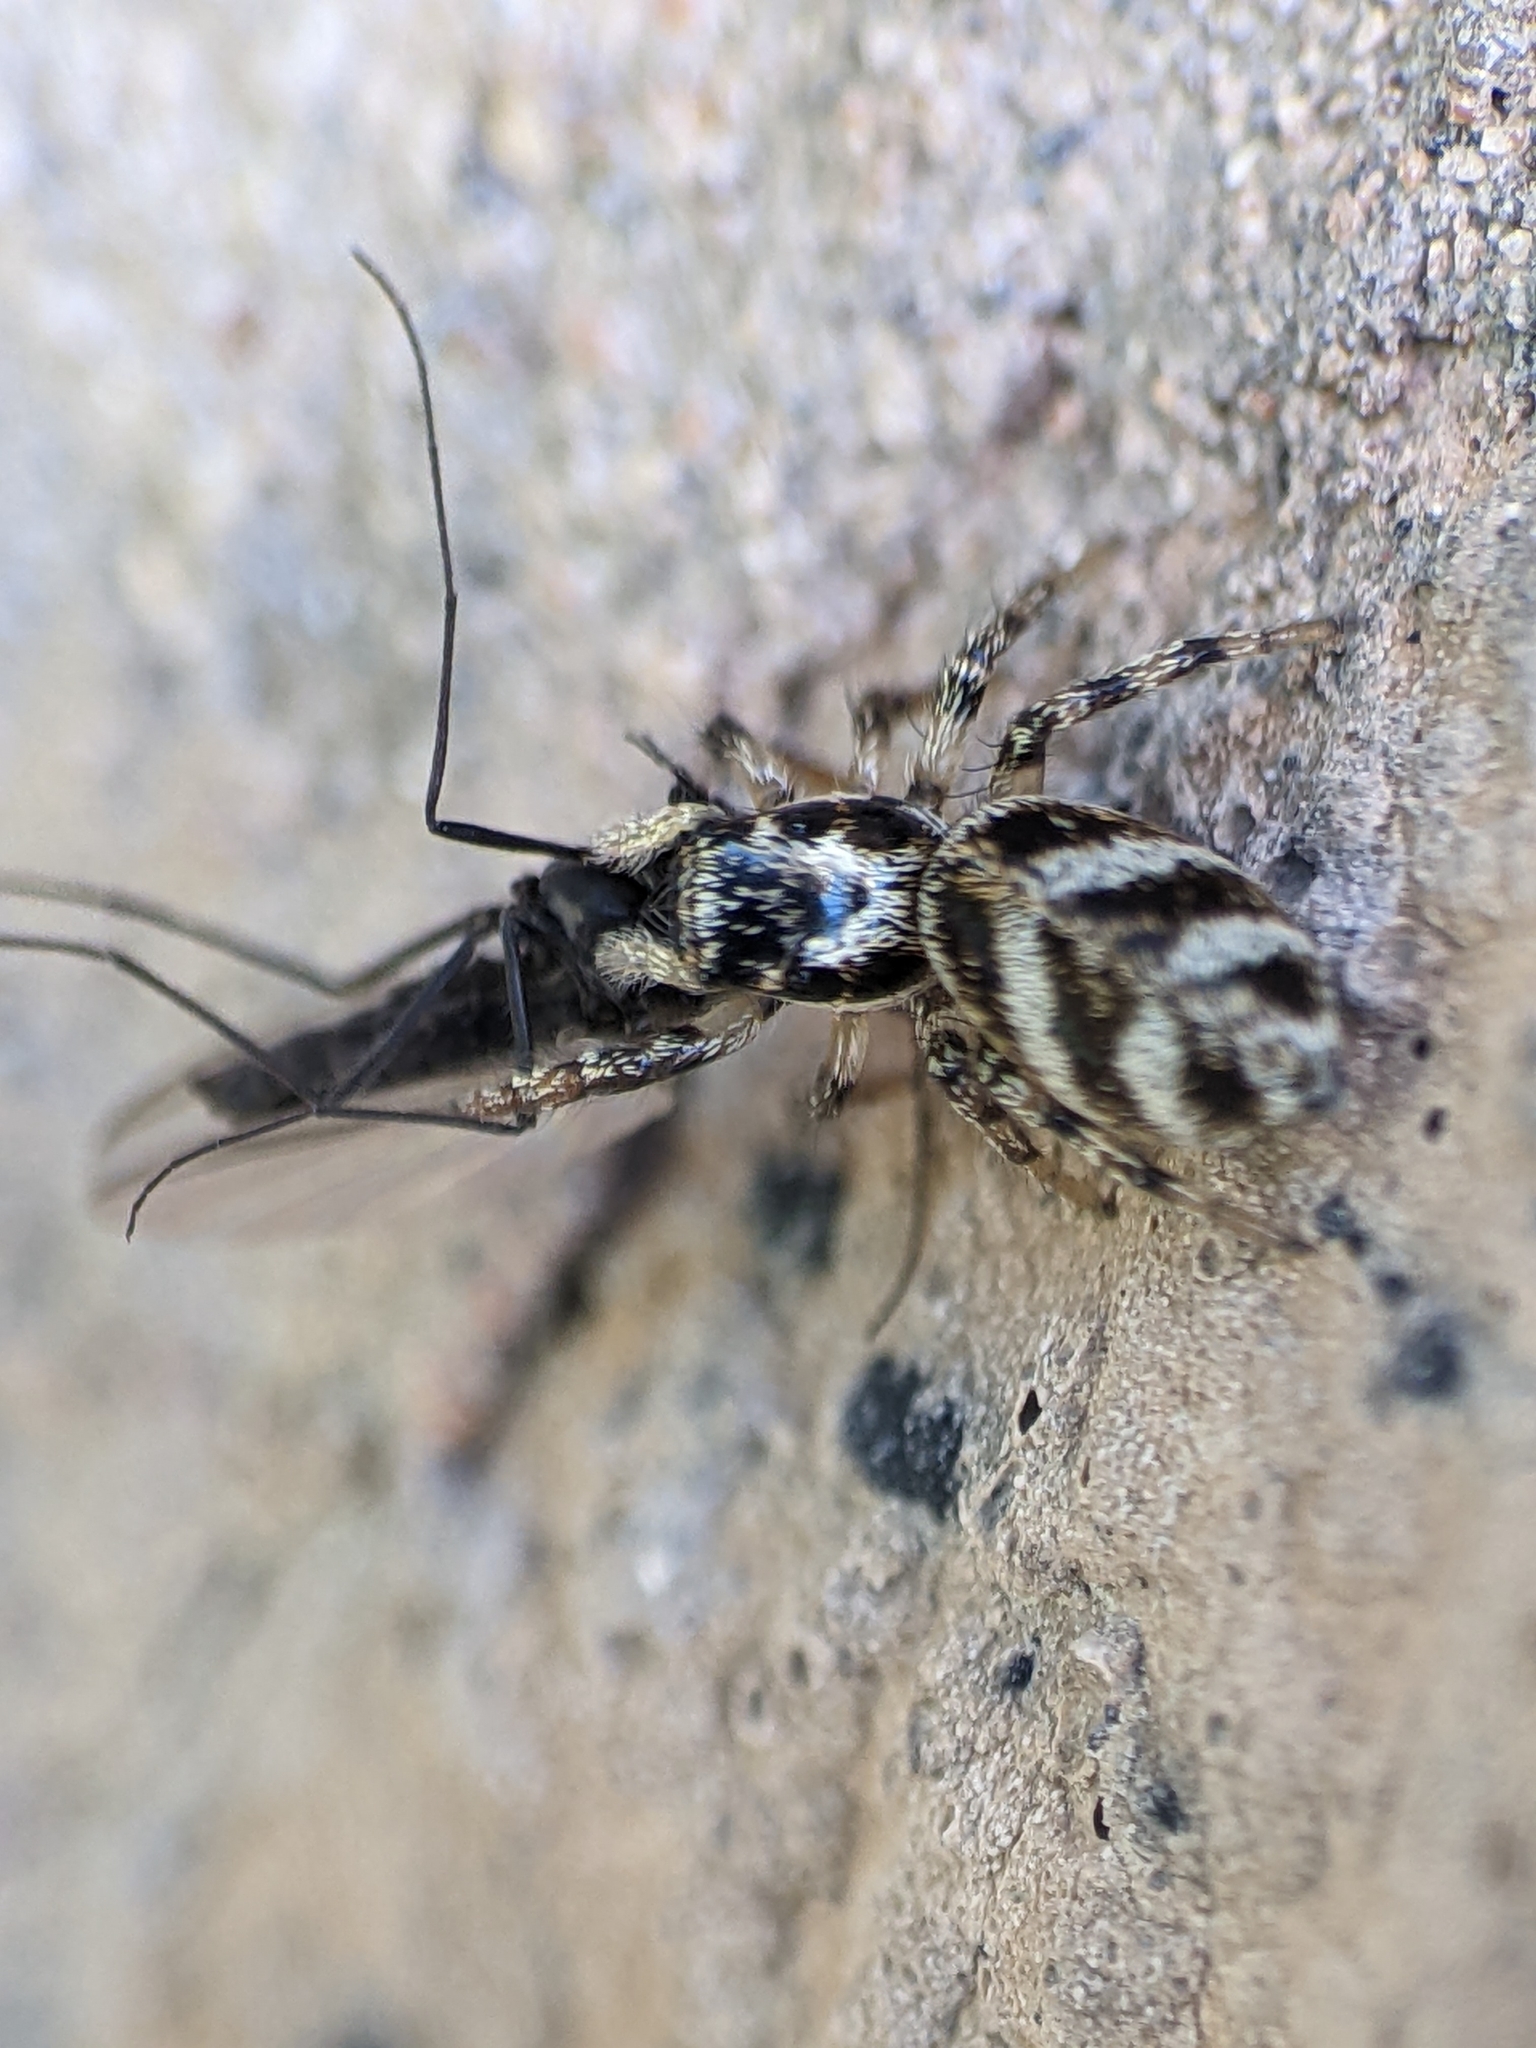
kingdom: Animalia
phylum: Arthropoda
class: Arachnida
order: Araneae
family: Salticidae
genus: Salticus
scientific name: Salticus scenicus
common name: Zebra jumper
